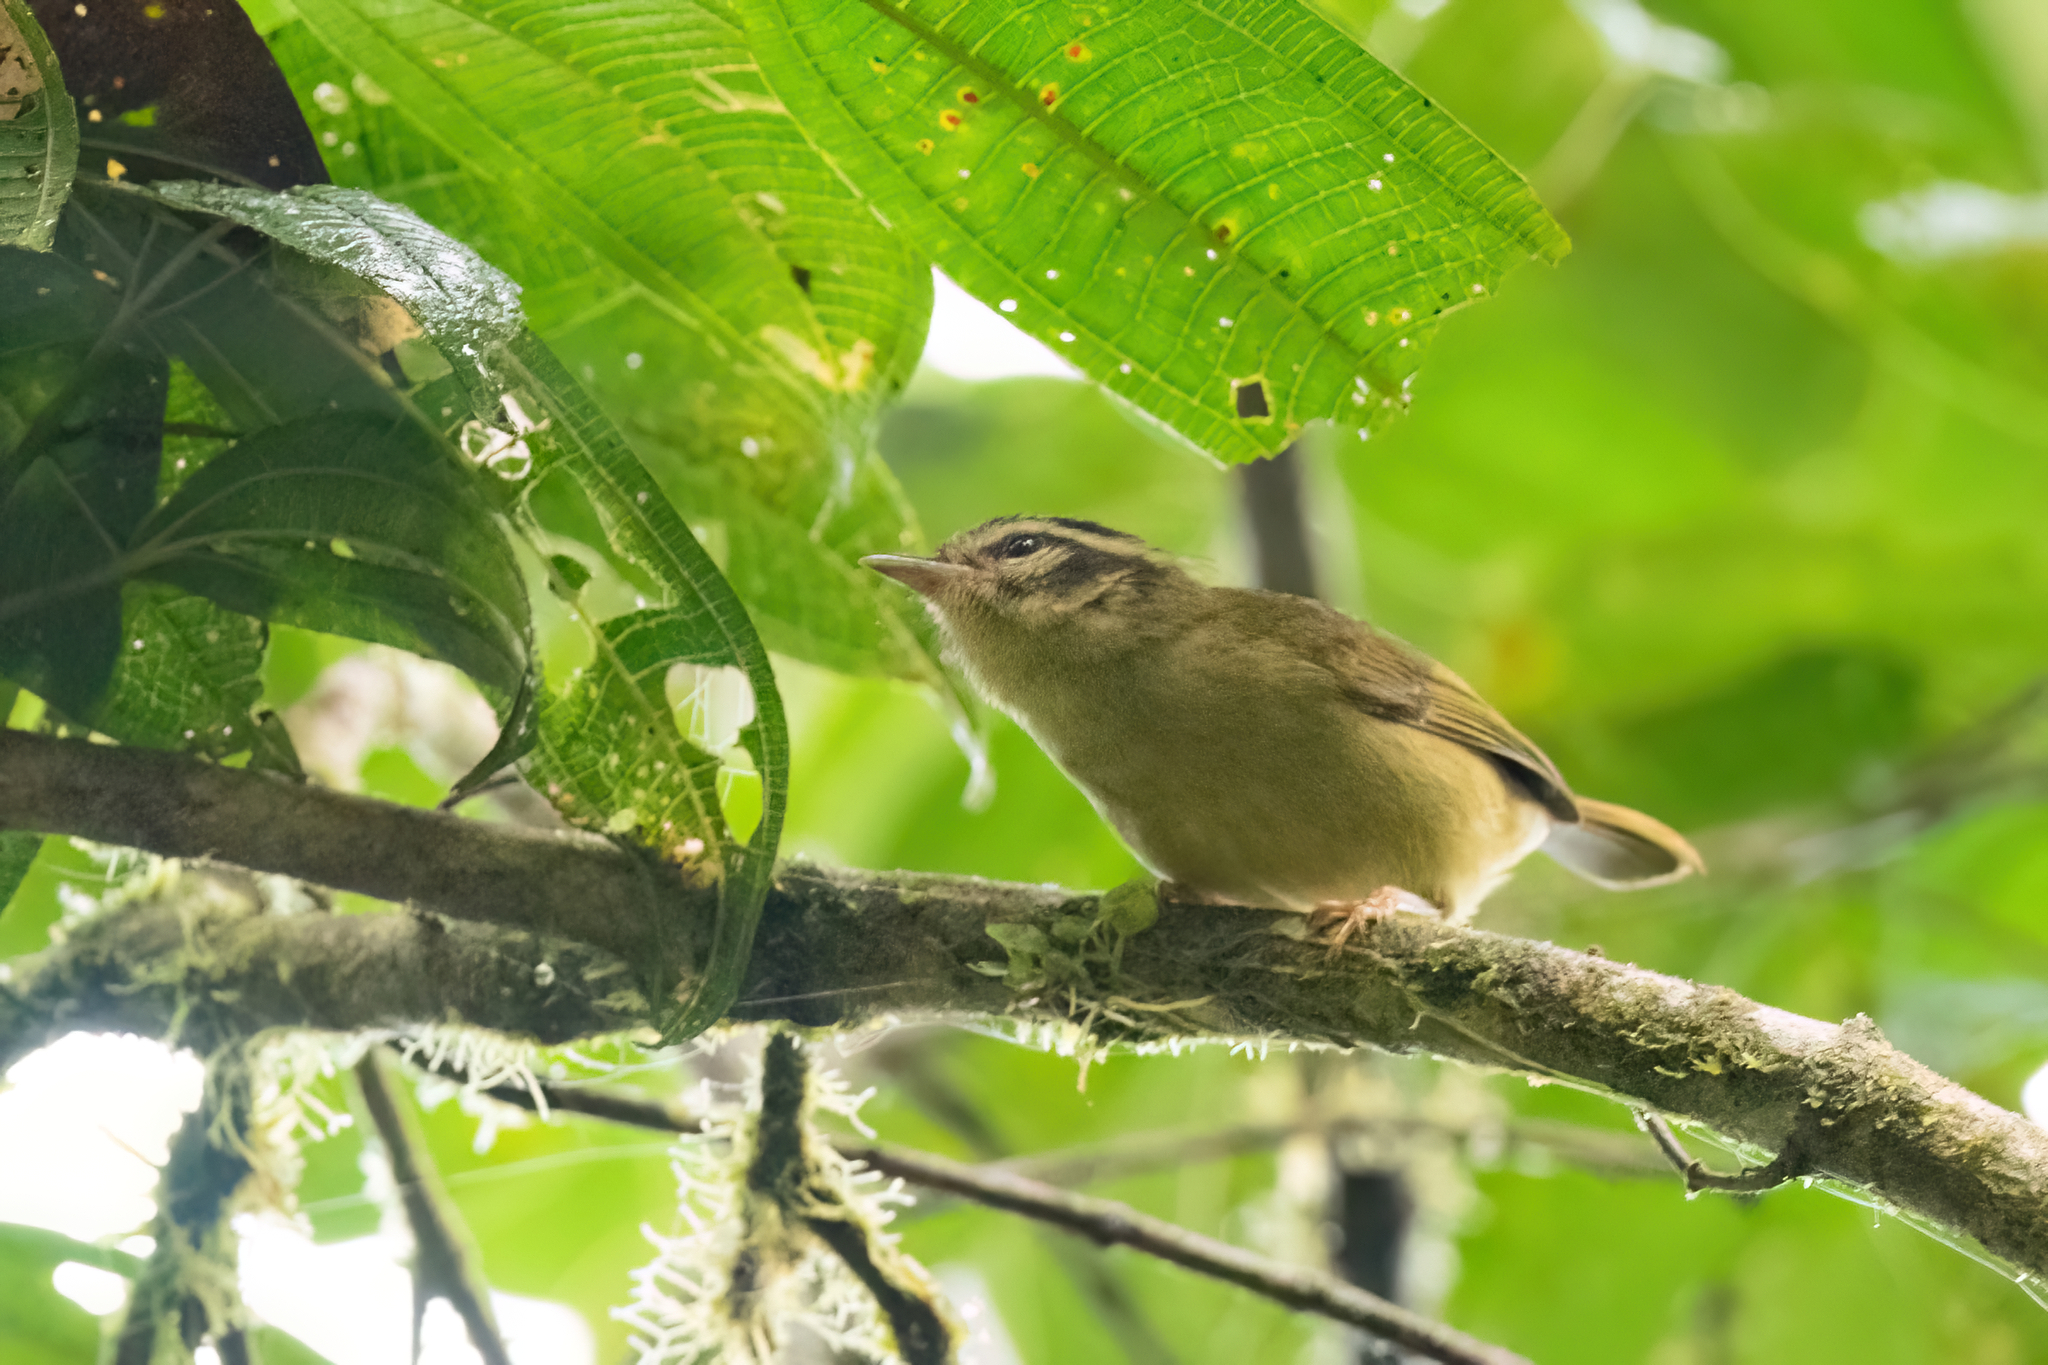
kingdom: Animalia
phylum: Chordata
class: Aves
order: Passeriformes
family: Parulidae
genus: Basileuterus
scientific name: Basileuterus tristriatus
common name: Three-striped warbler
